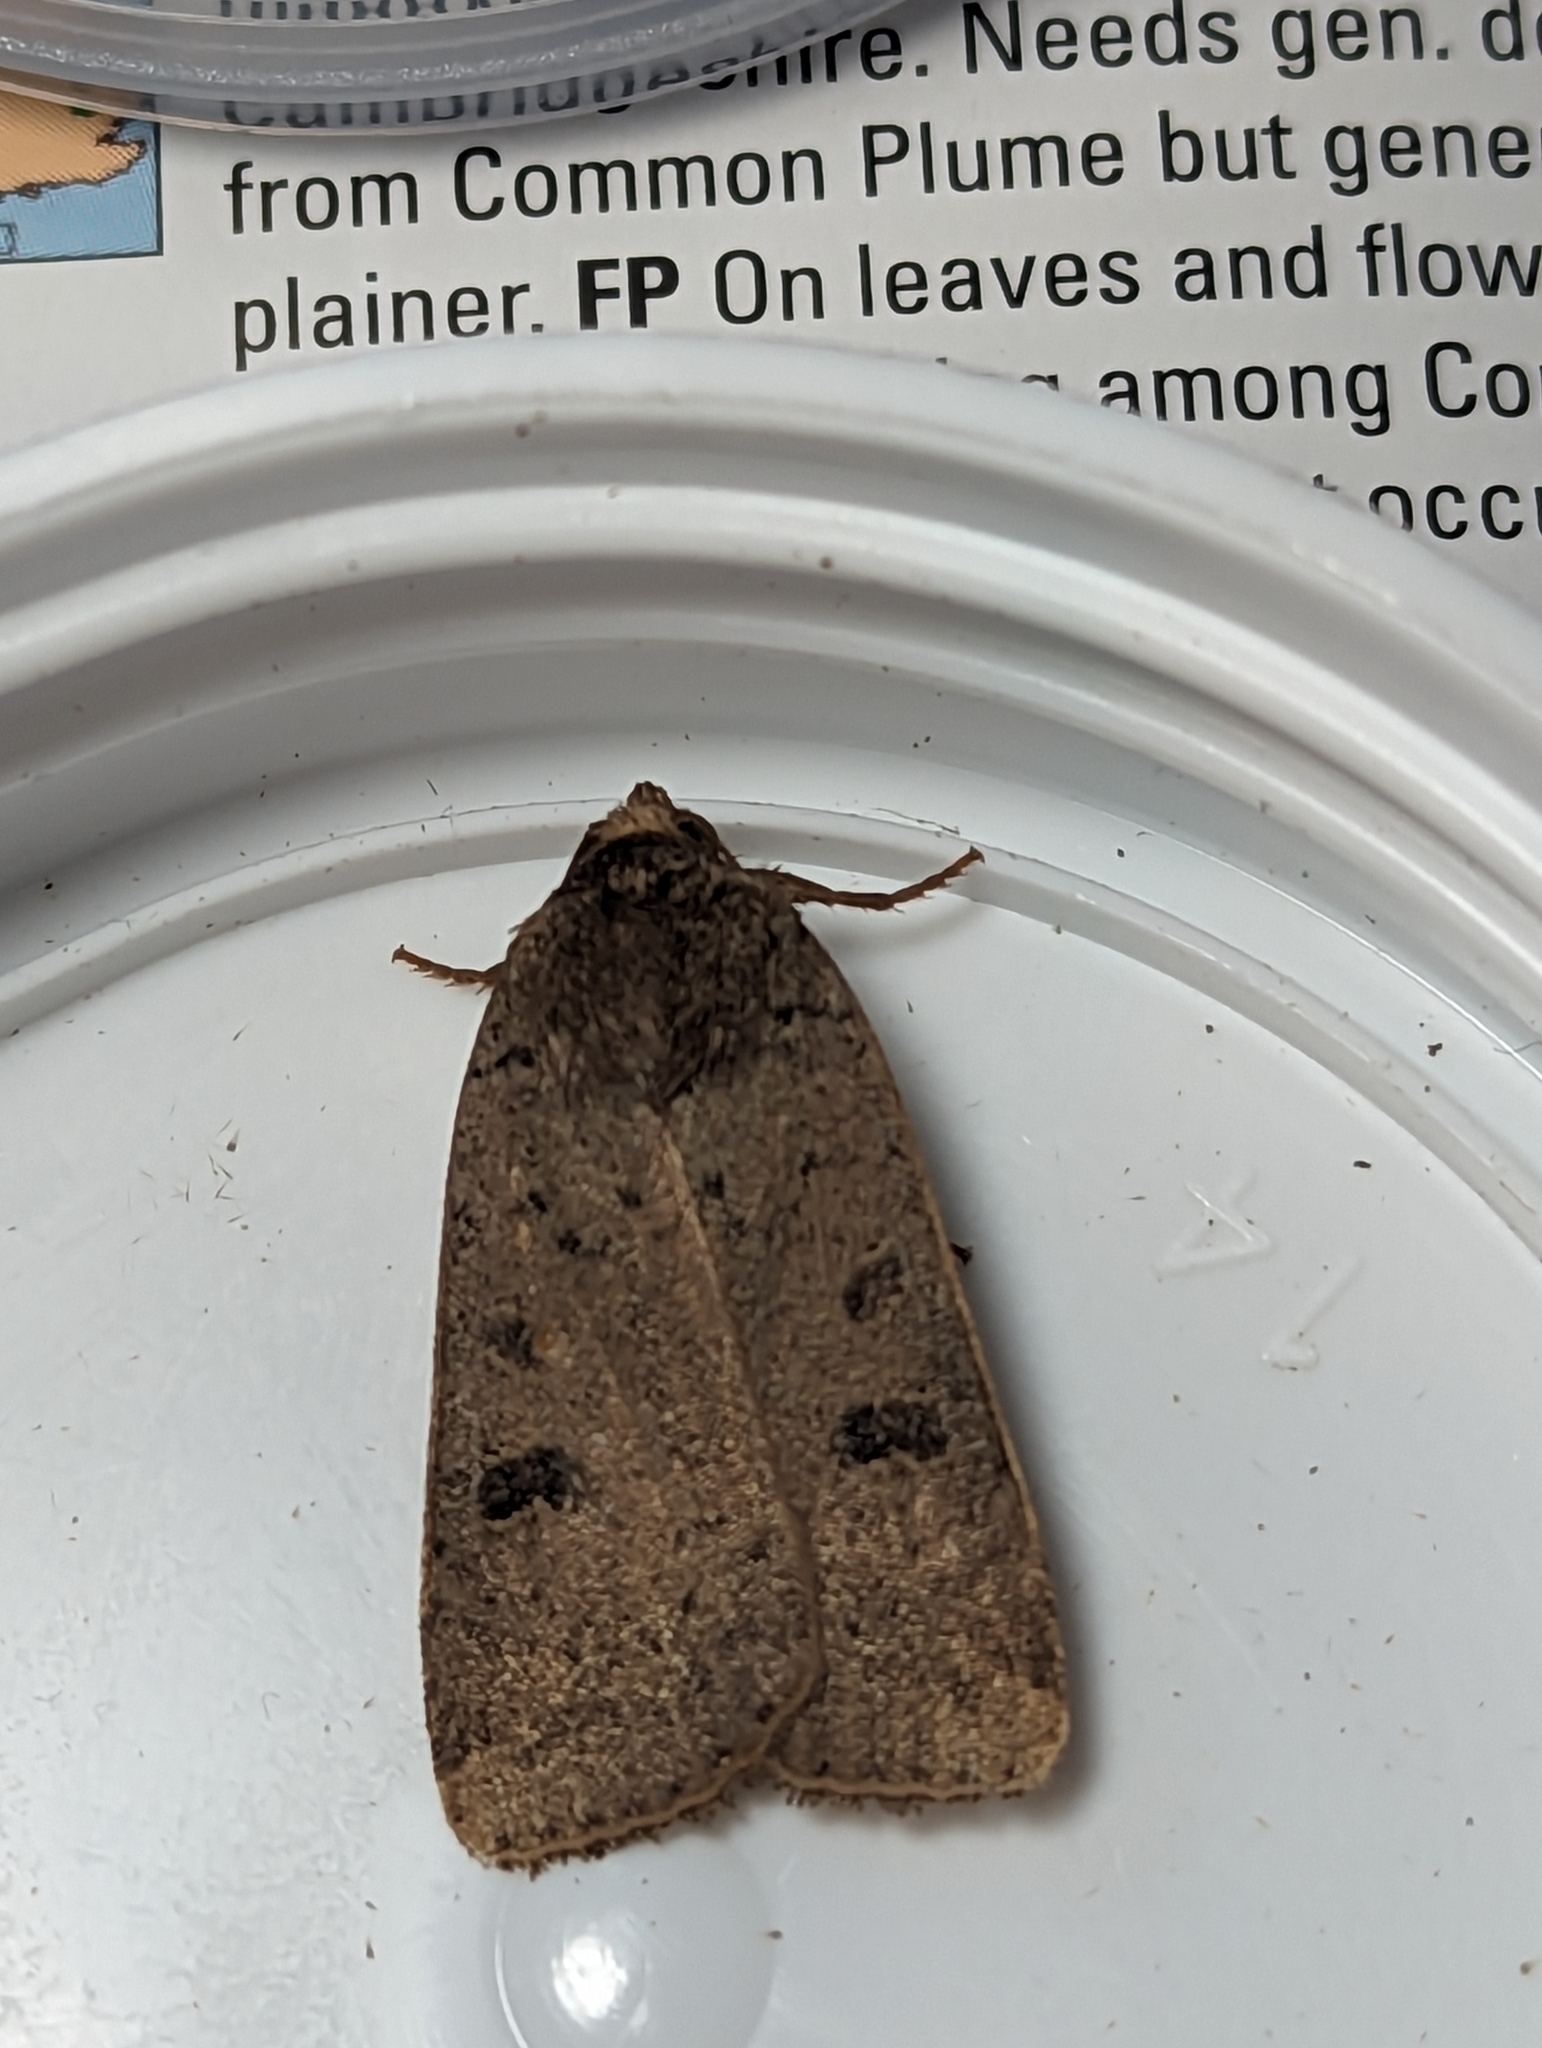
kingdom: Animalia
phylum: Arthropoda
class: Insecta
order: Lepidoptera
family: Noctuidae
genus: Noctua
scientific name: Noctua comes
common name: Lesser yellow underwing
